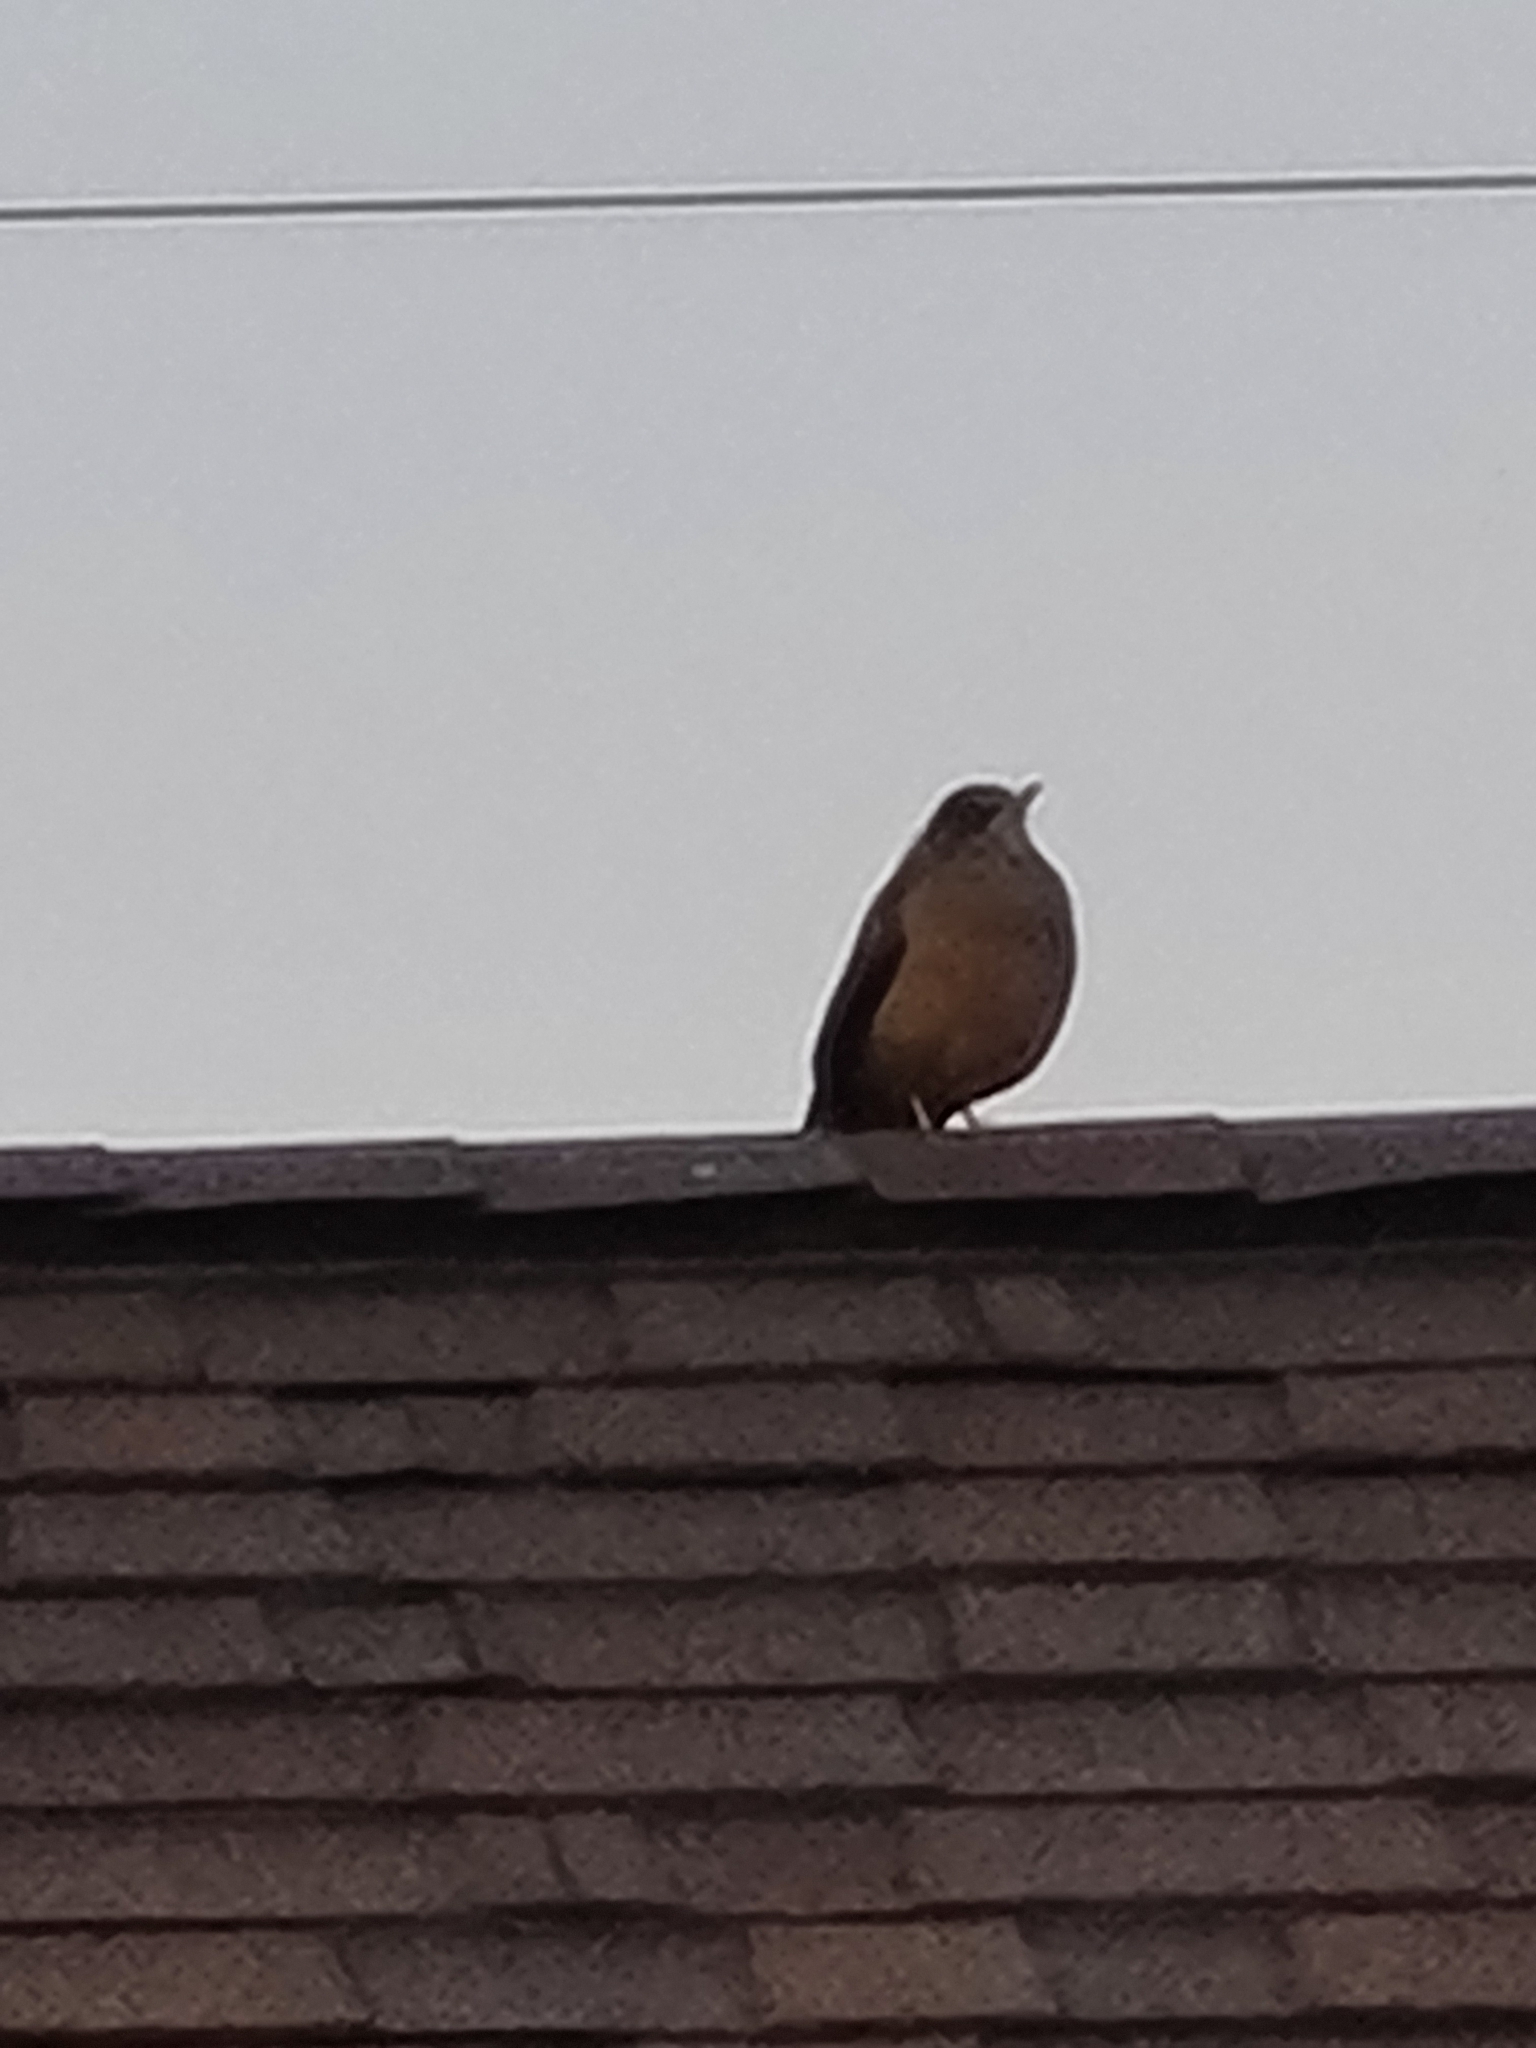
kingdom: Animalia
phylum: Chordata
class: Aves
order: Passeriformes
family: Turdidae
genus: Turdus
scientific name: Turdus falcklandii
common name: Austral thrush
